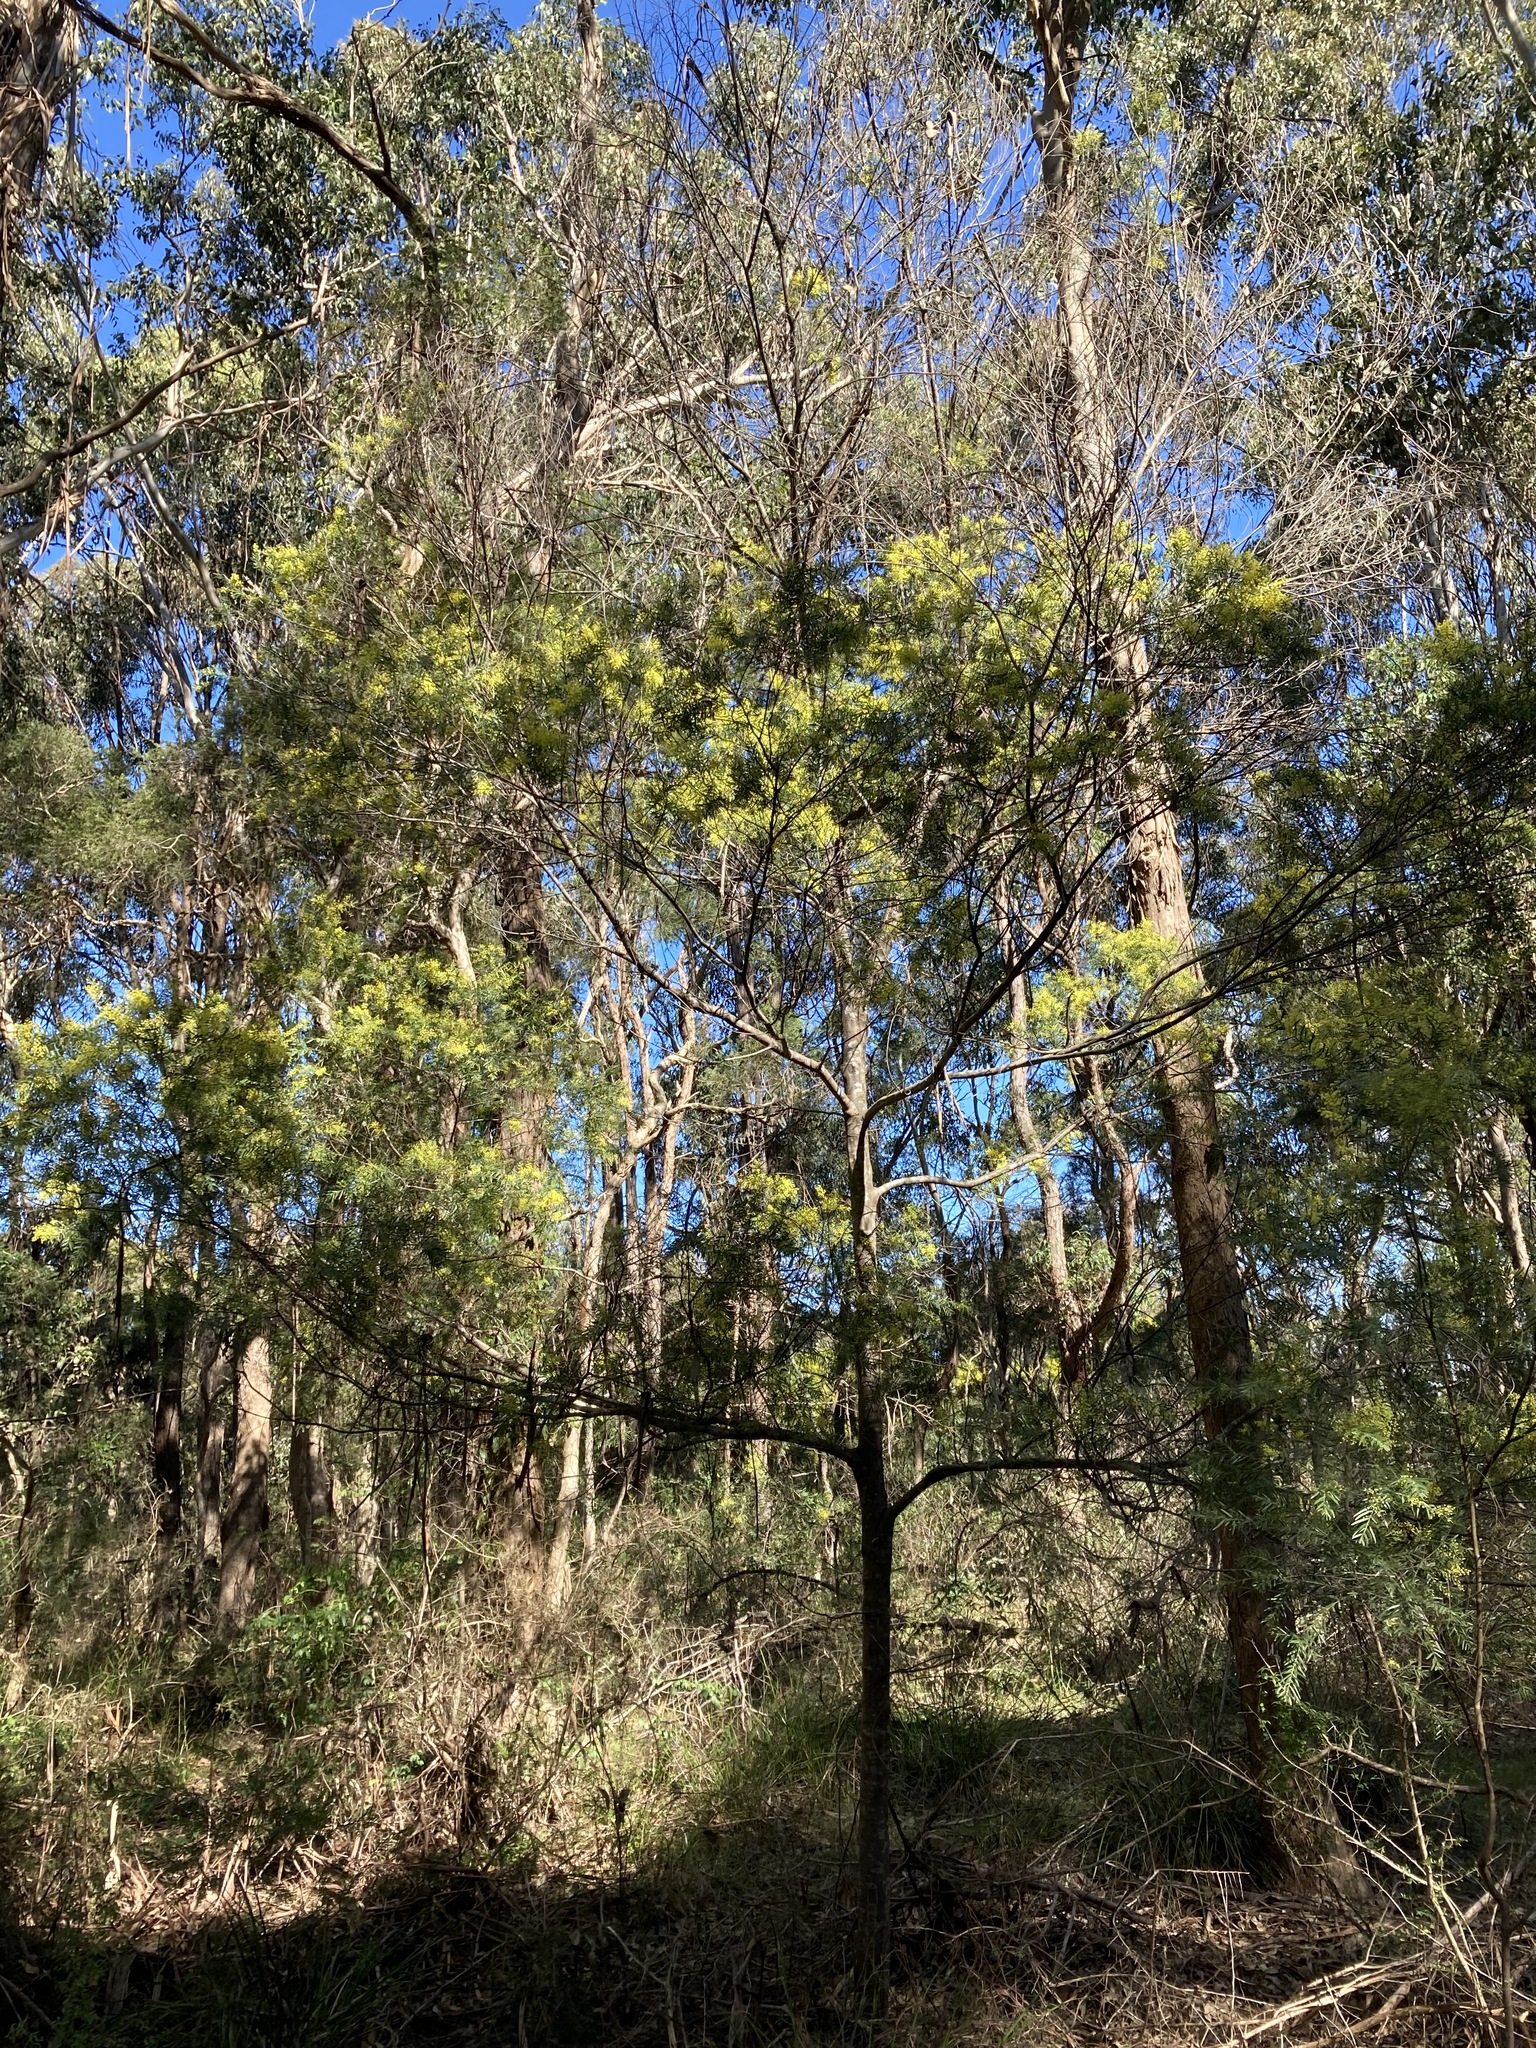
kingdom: Plantae
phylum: Tracheophyta
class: Magnoliopsida
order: Fabales
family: Fabaceae
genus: Acacia
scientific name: Acacia fimbriata
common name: Brisbane golden wattle
